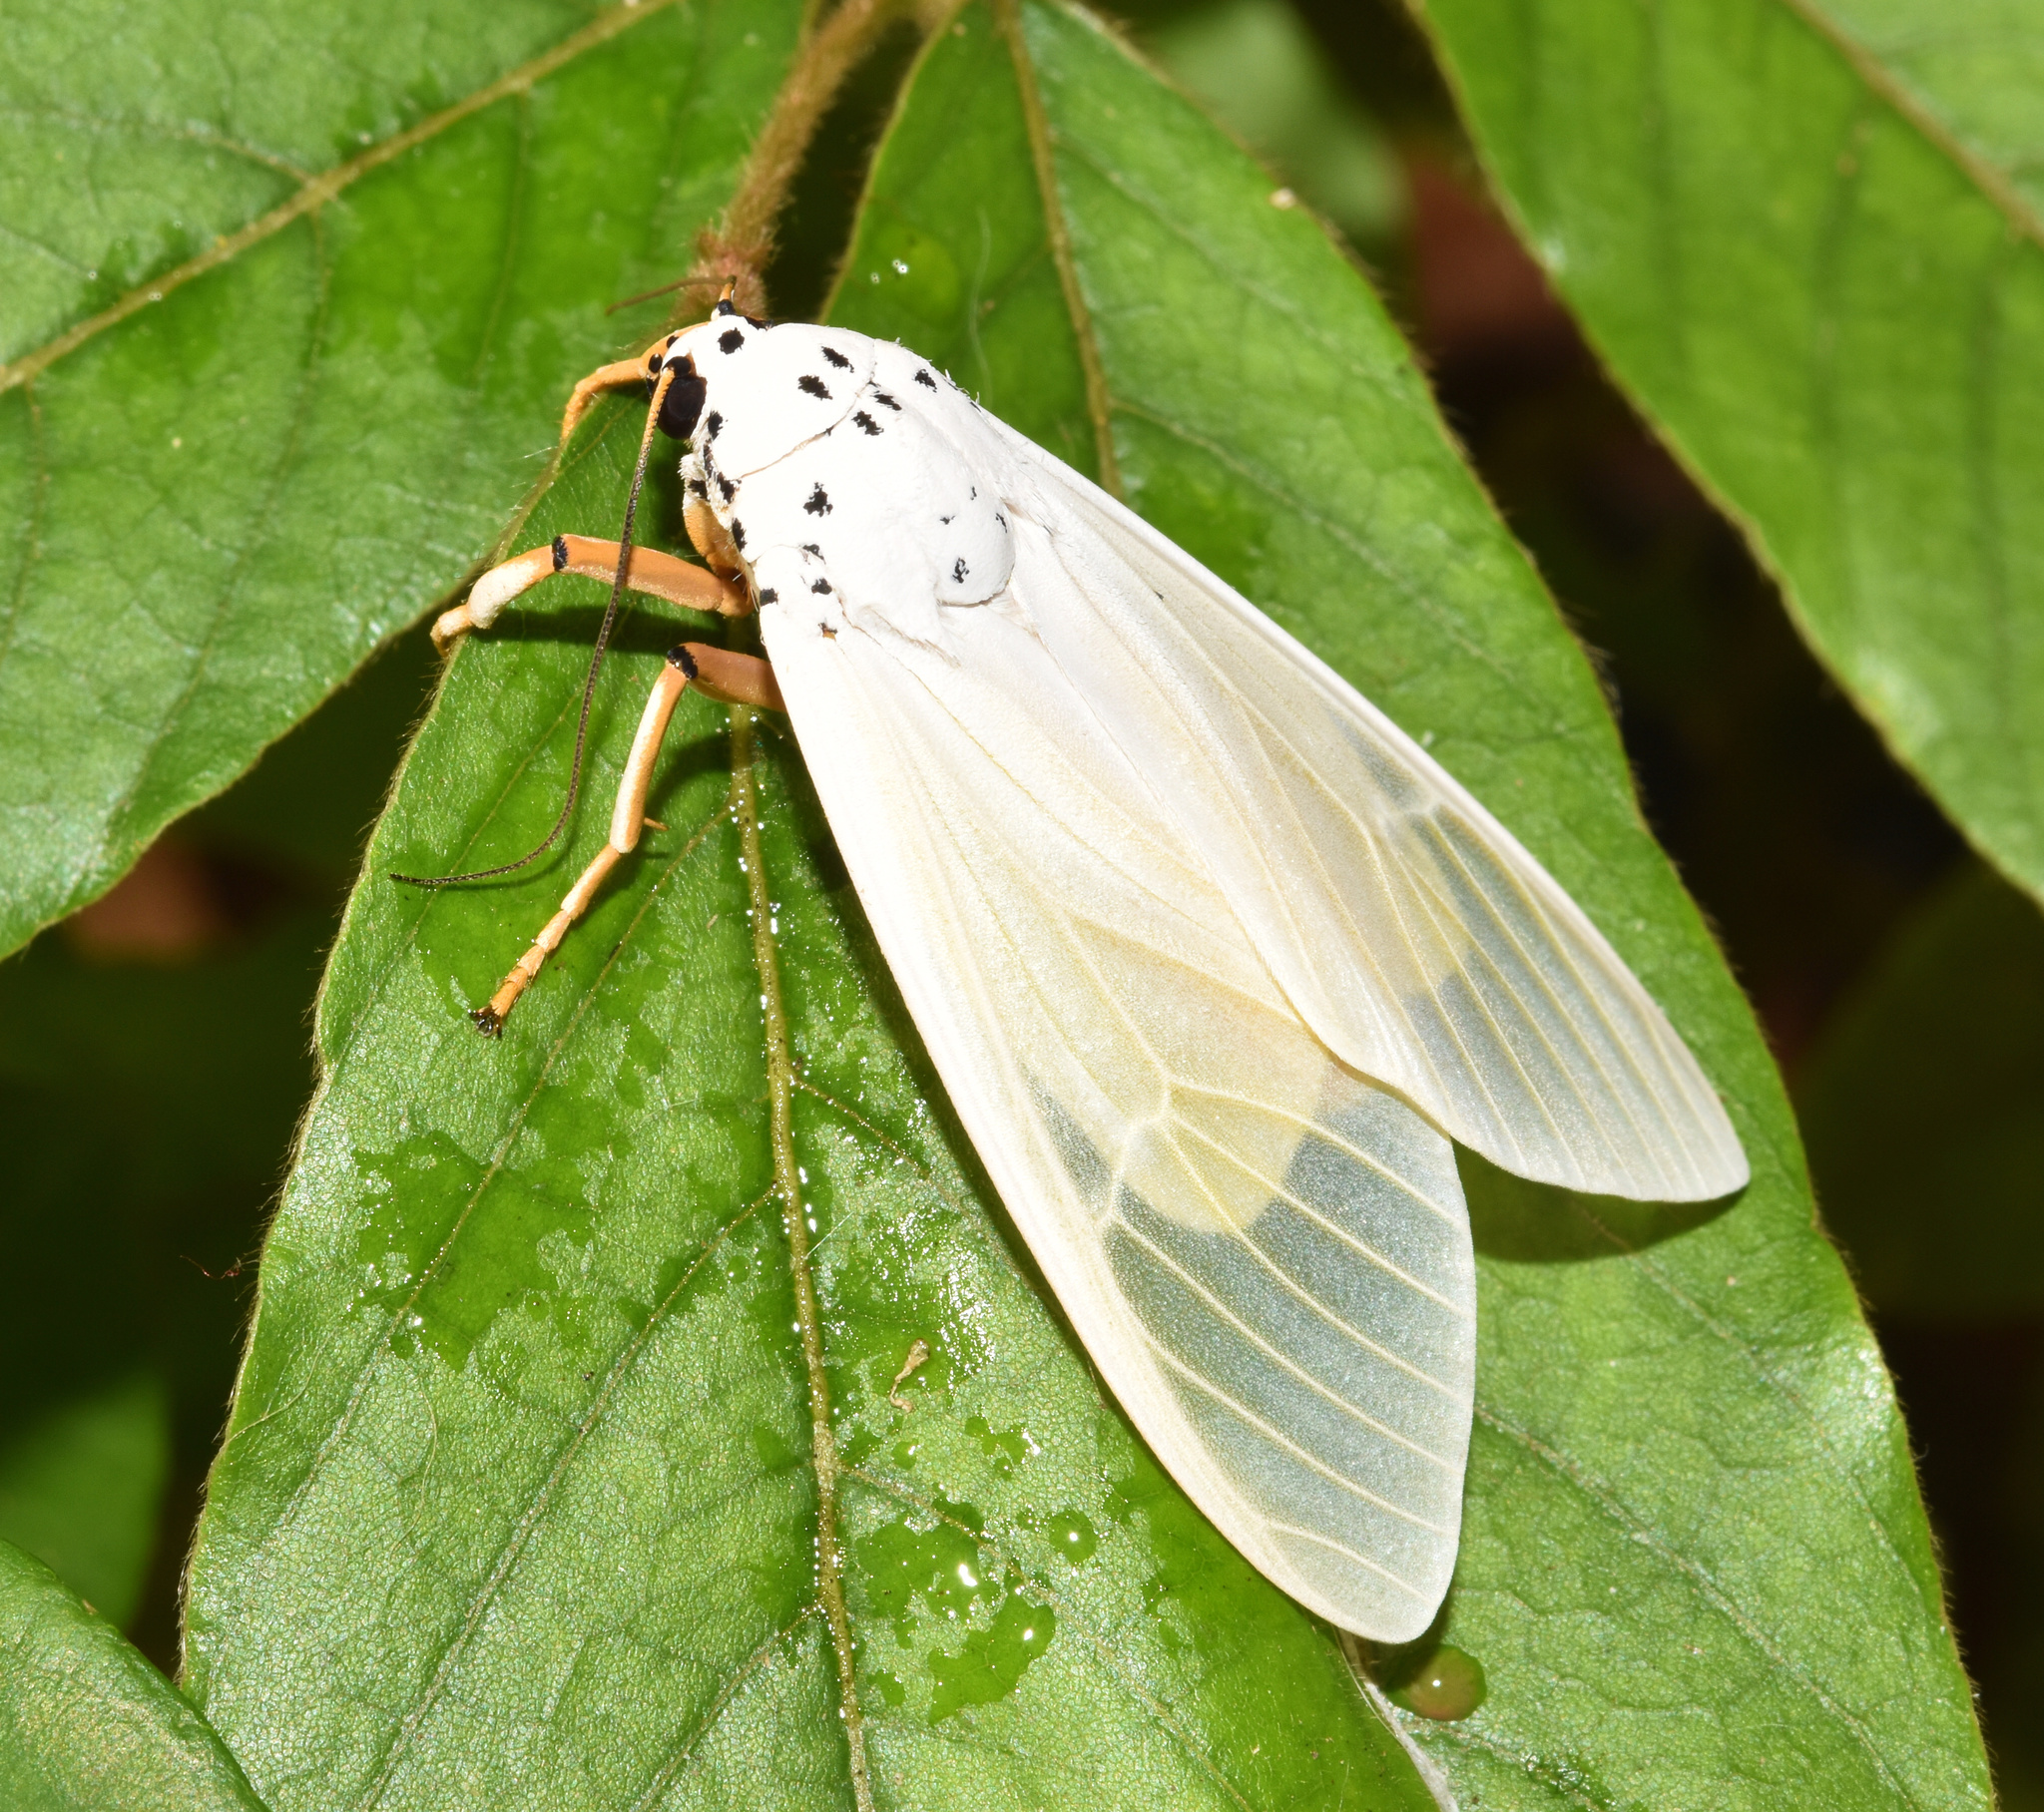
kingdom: Animalia
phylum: Arthropoda
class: Insecta
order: Lepidoptera
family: Erebidae
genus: Amerila
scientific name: Amerila bubo
